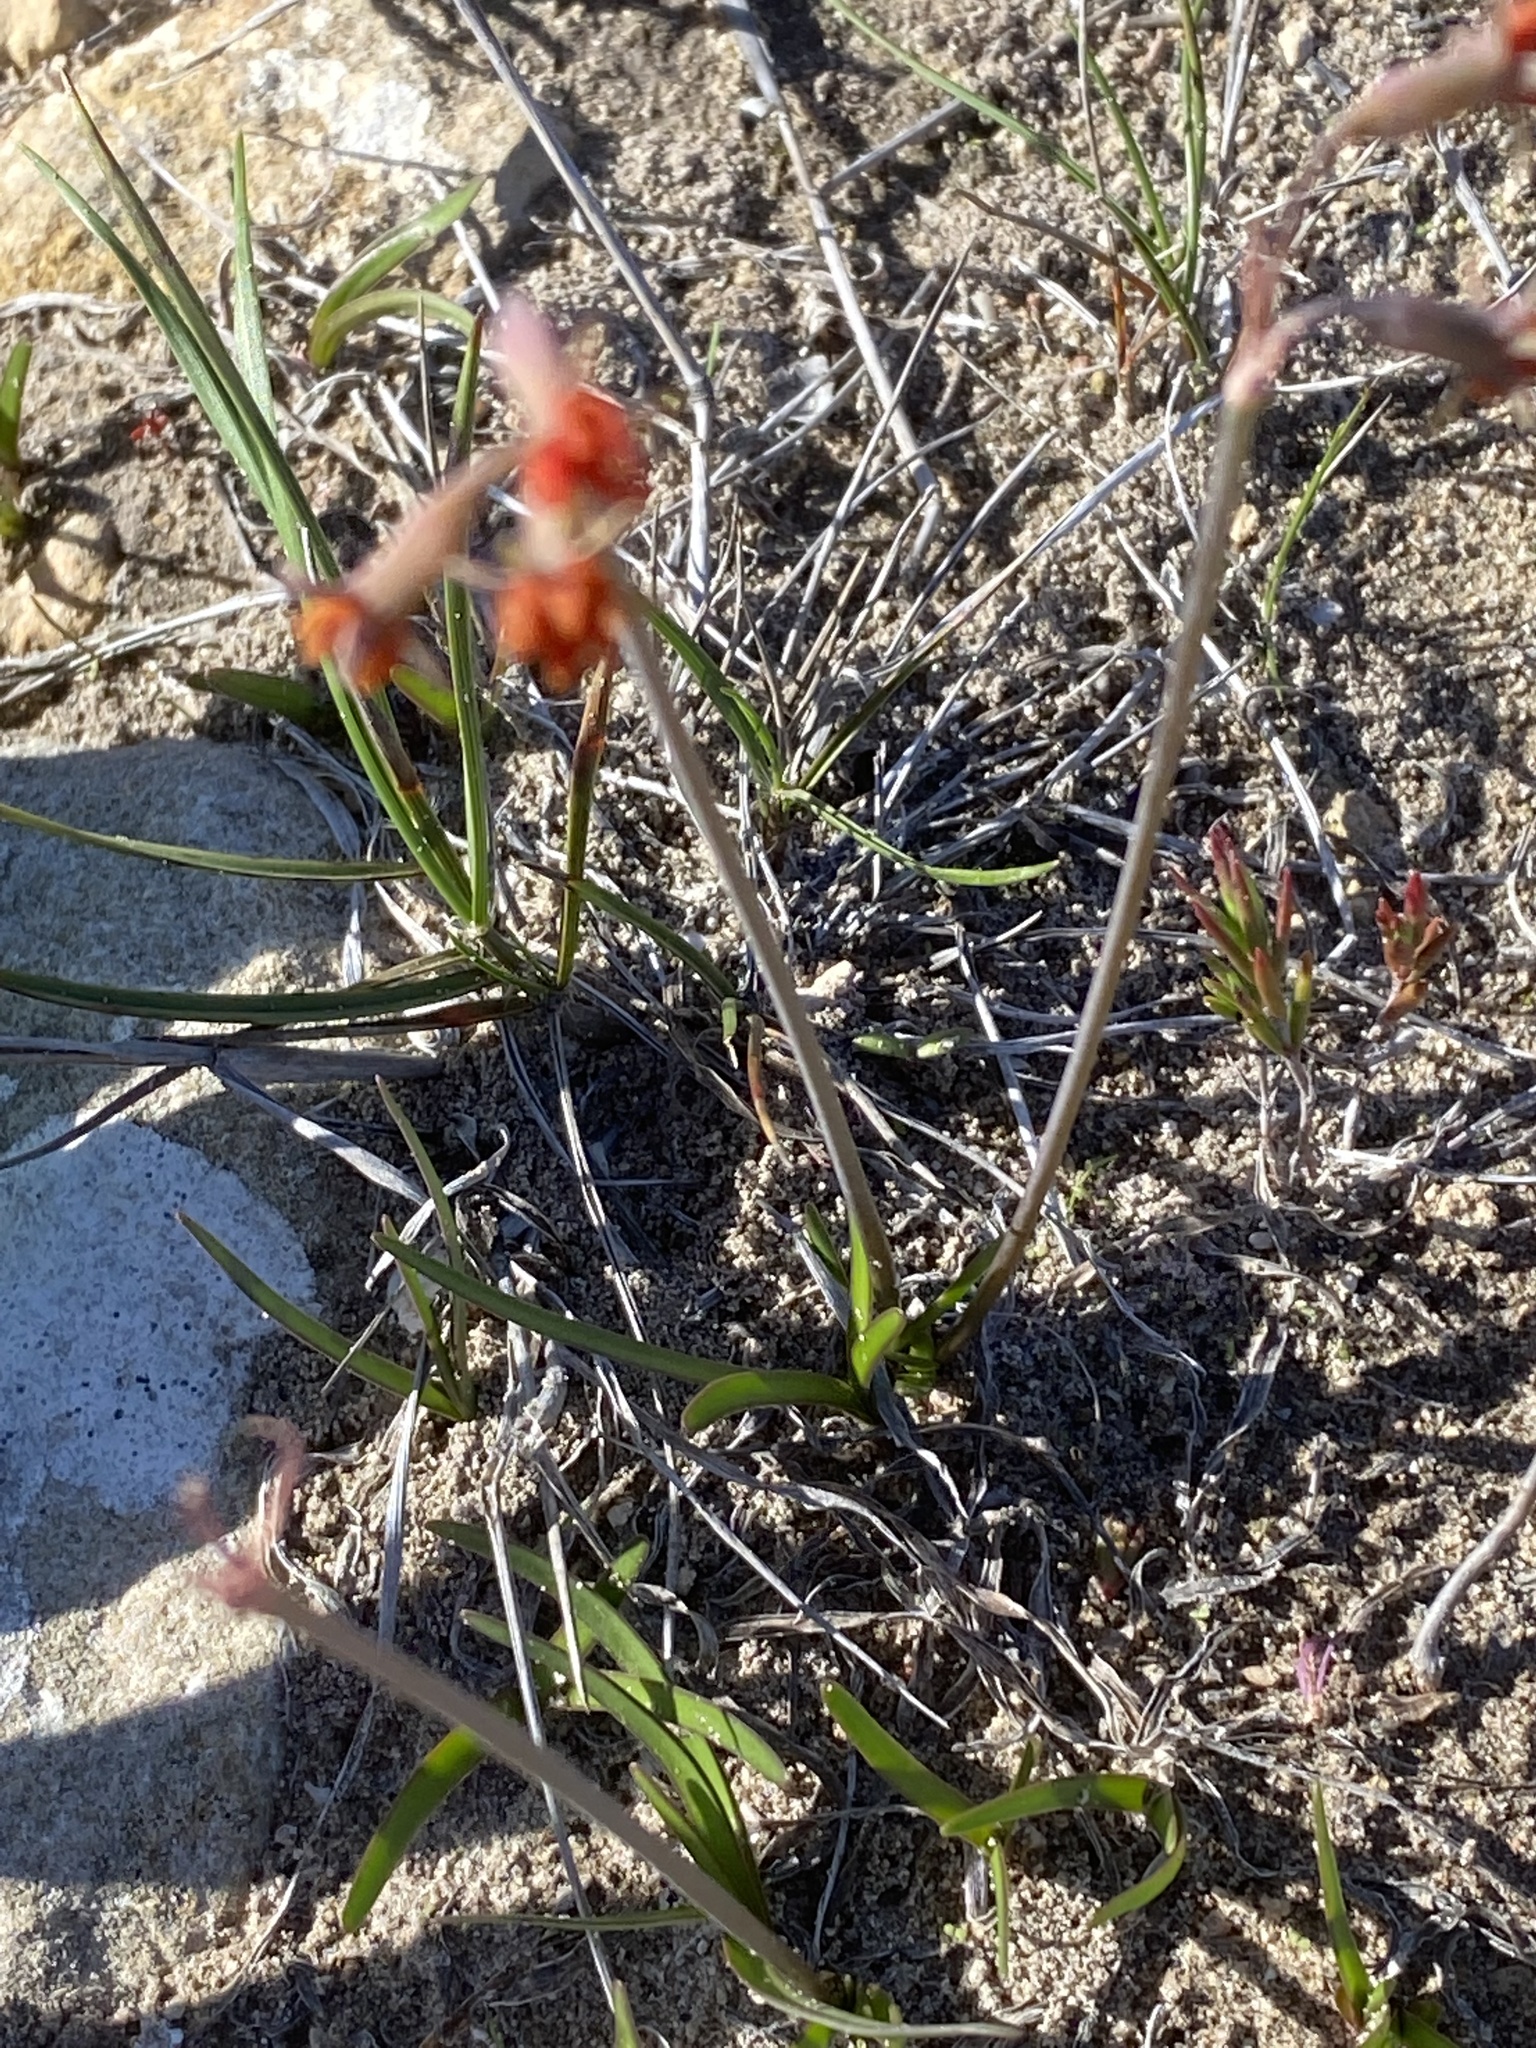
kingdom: Plantae
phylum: Tracheophyta
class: Liliopsida
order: Asparagales
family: Amaryllidaceae
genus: Tulbaghia
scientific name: Tulbaghia capensis
